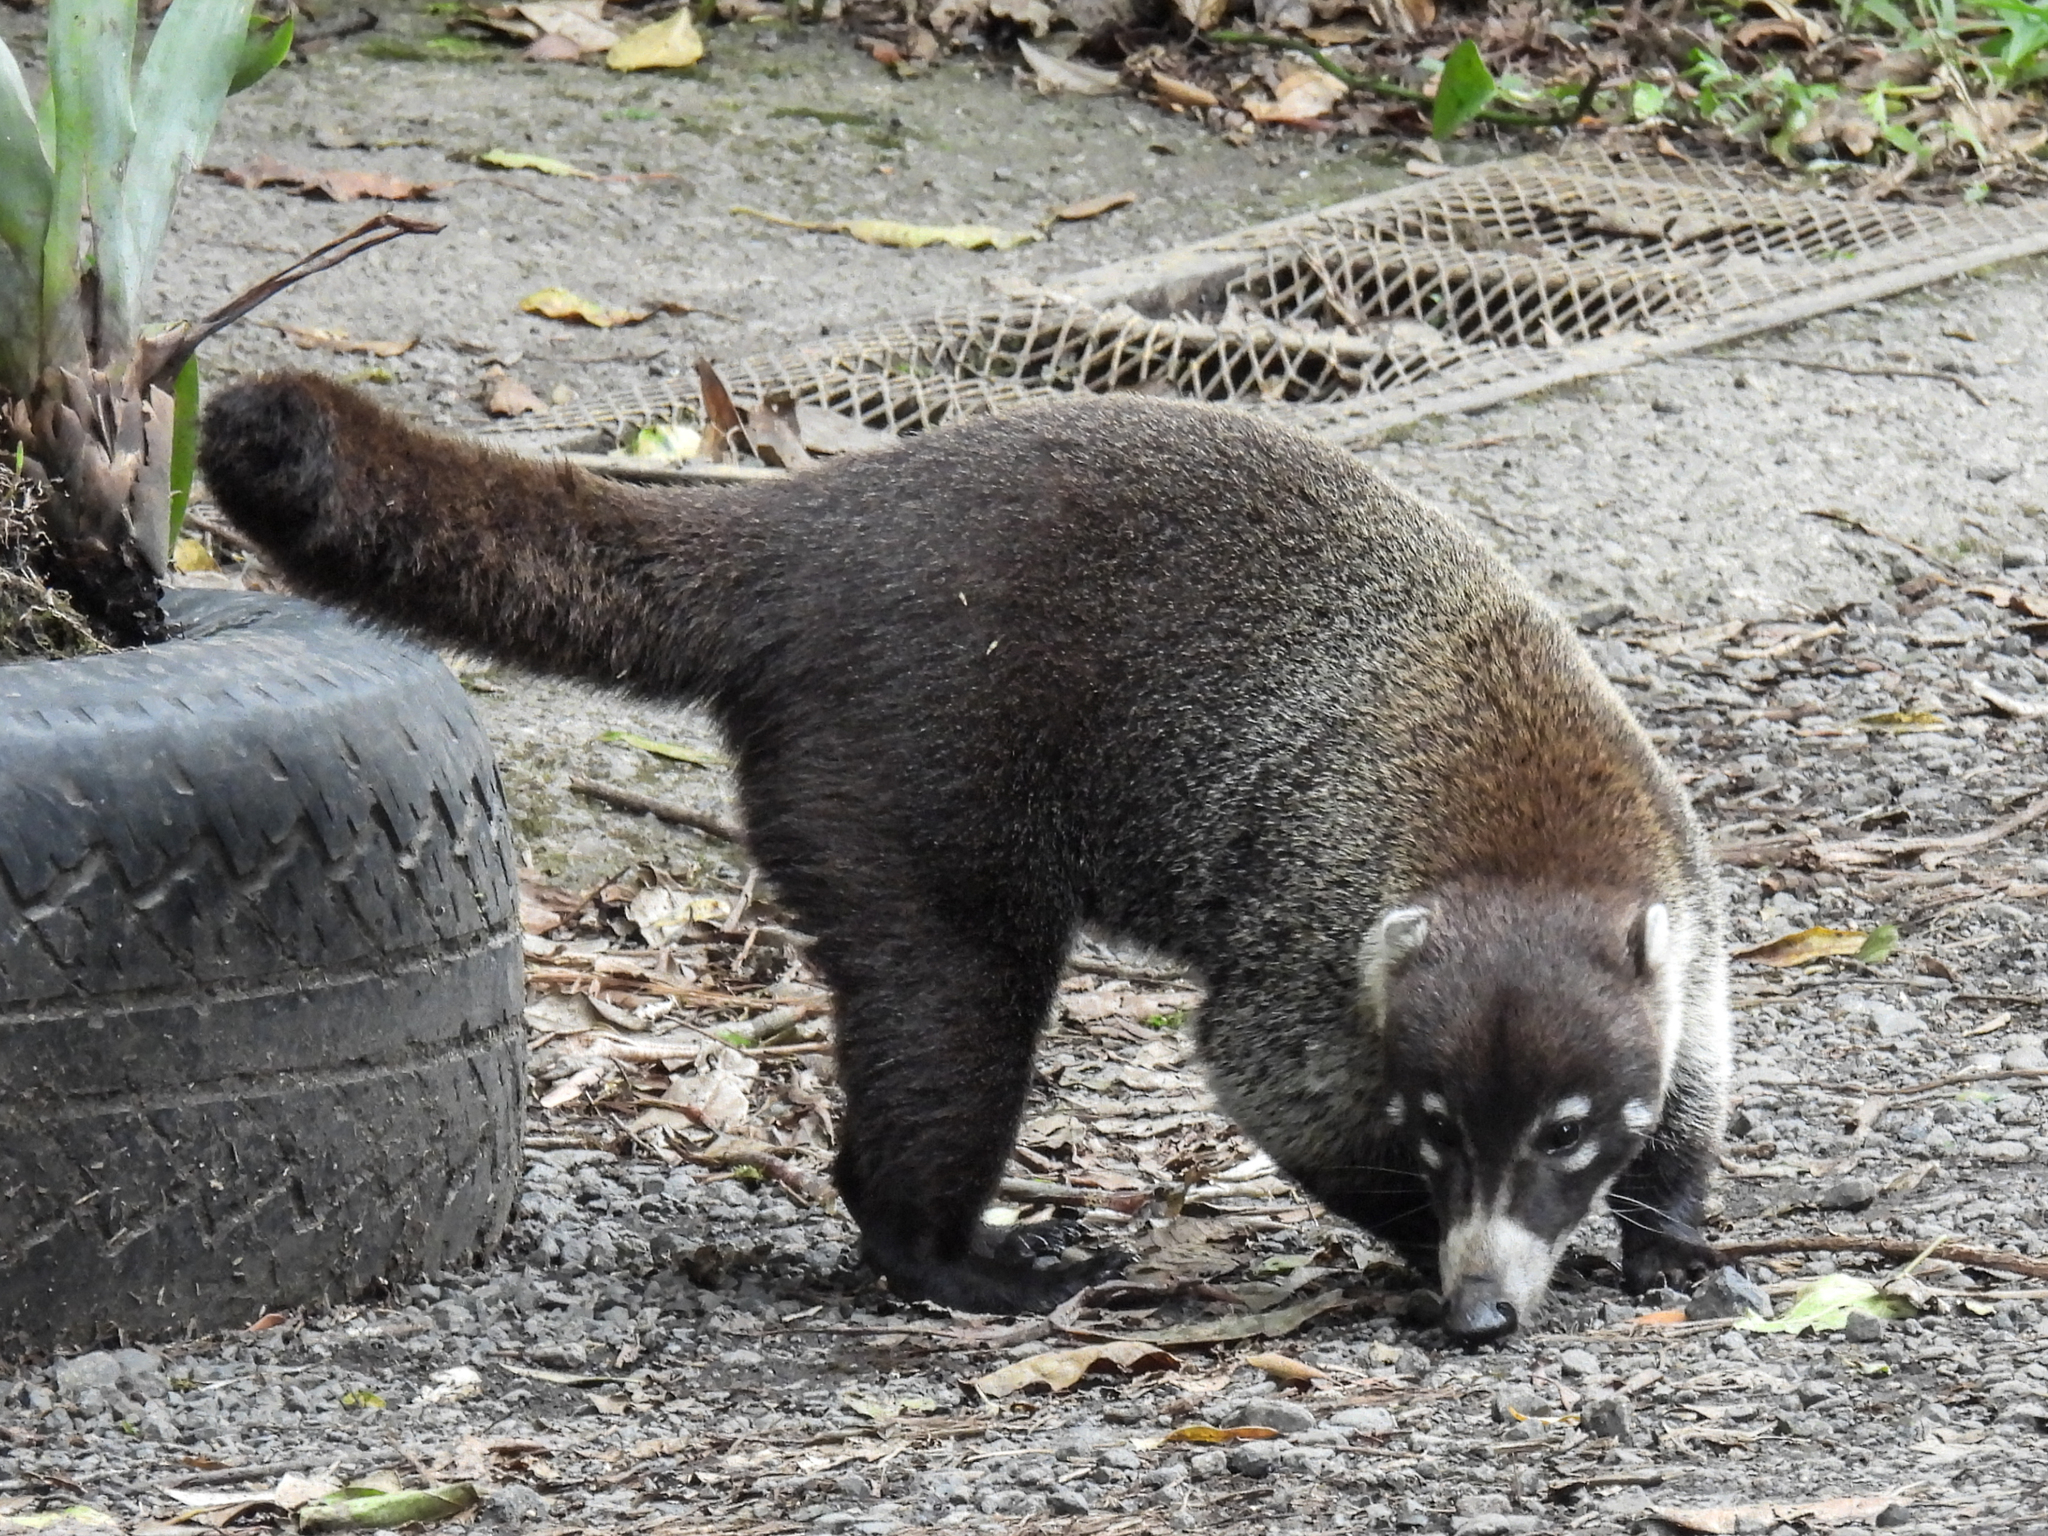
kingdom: Animalia
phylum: Chordata
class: Mammalia
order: Carnivora
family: Procyonidae
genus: Nasua
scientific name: Nasua narica
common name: White-nosed coati
